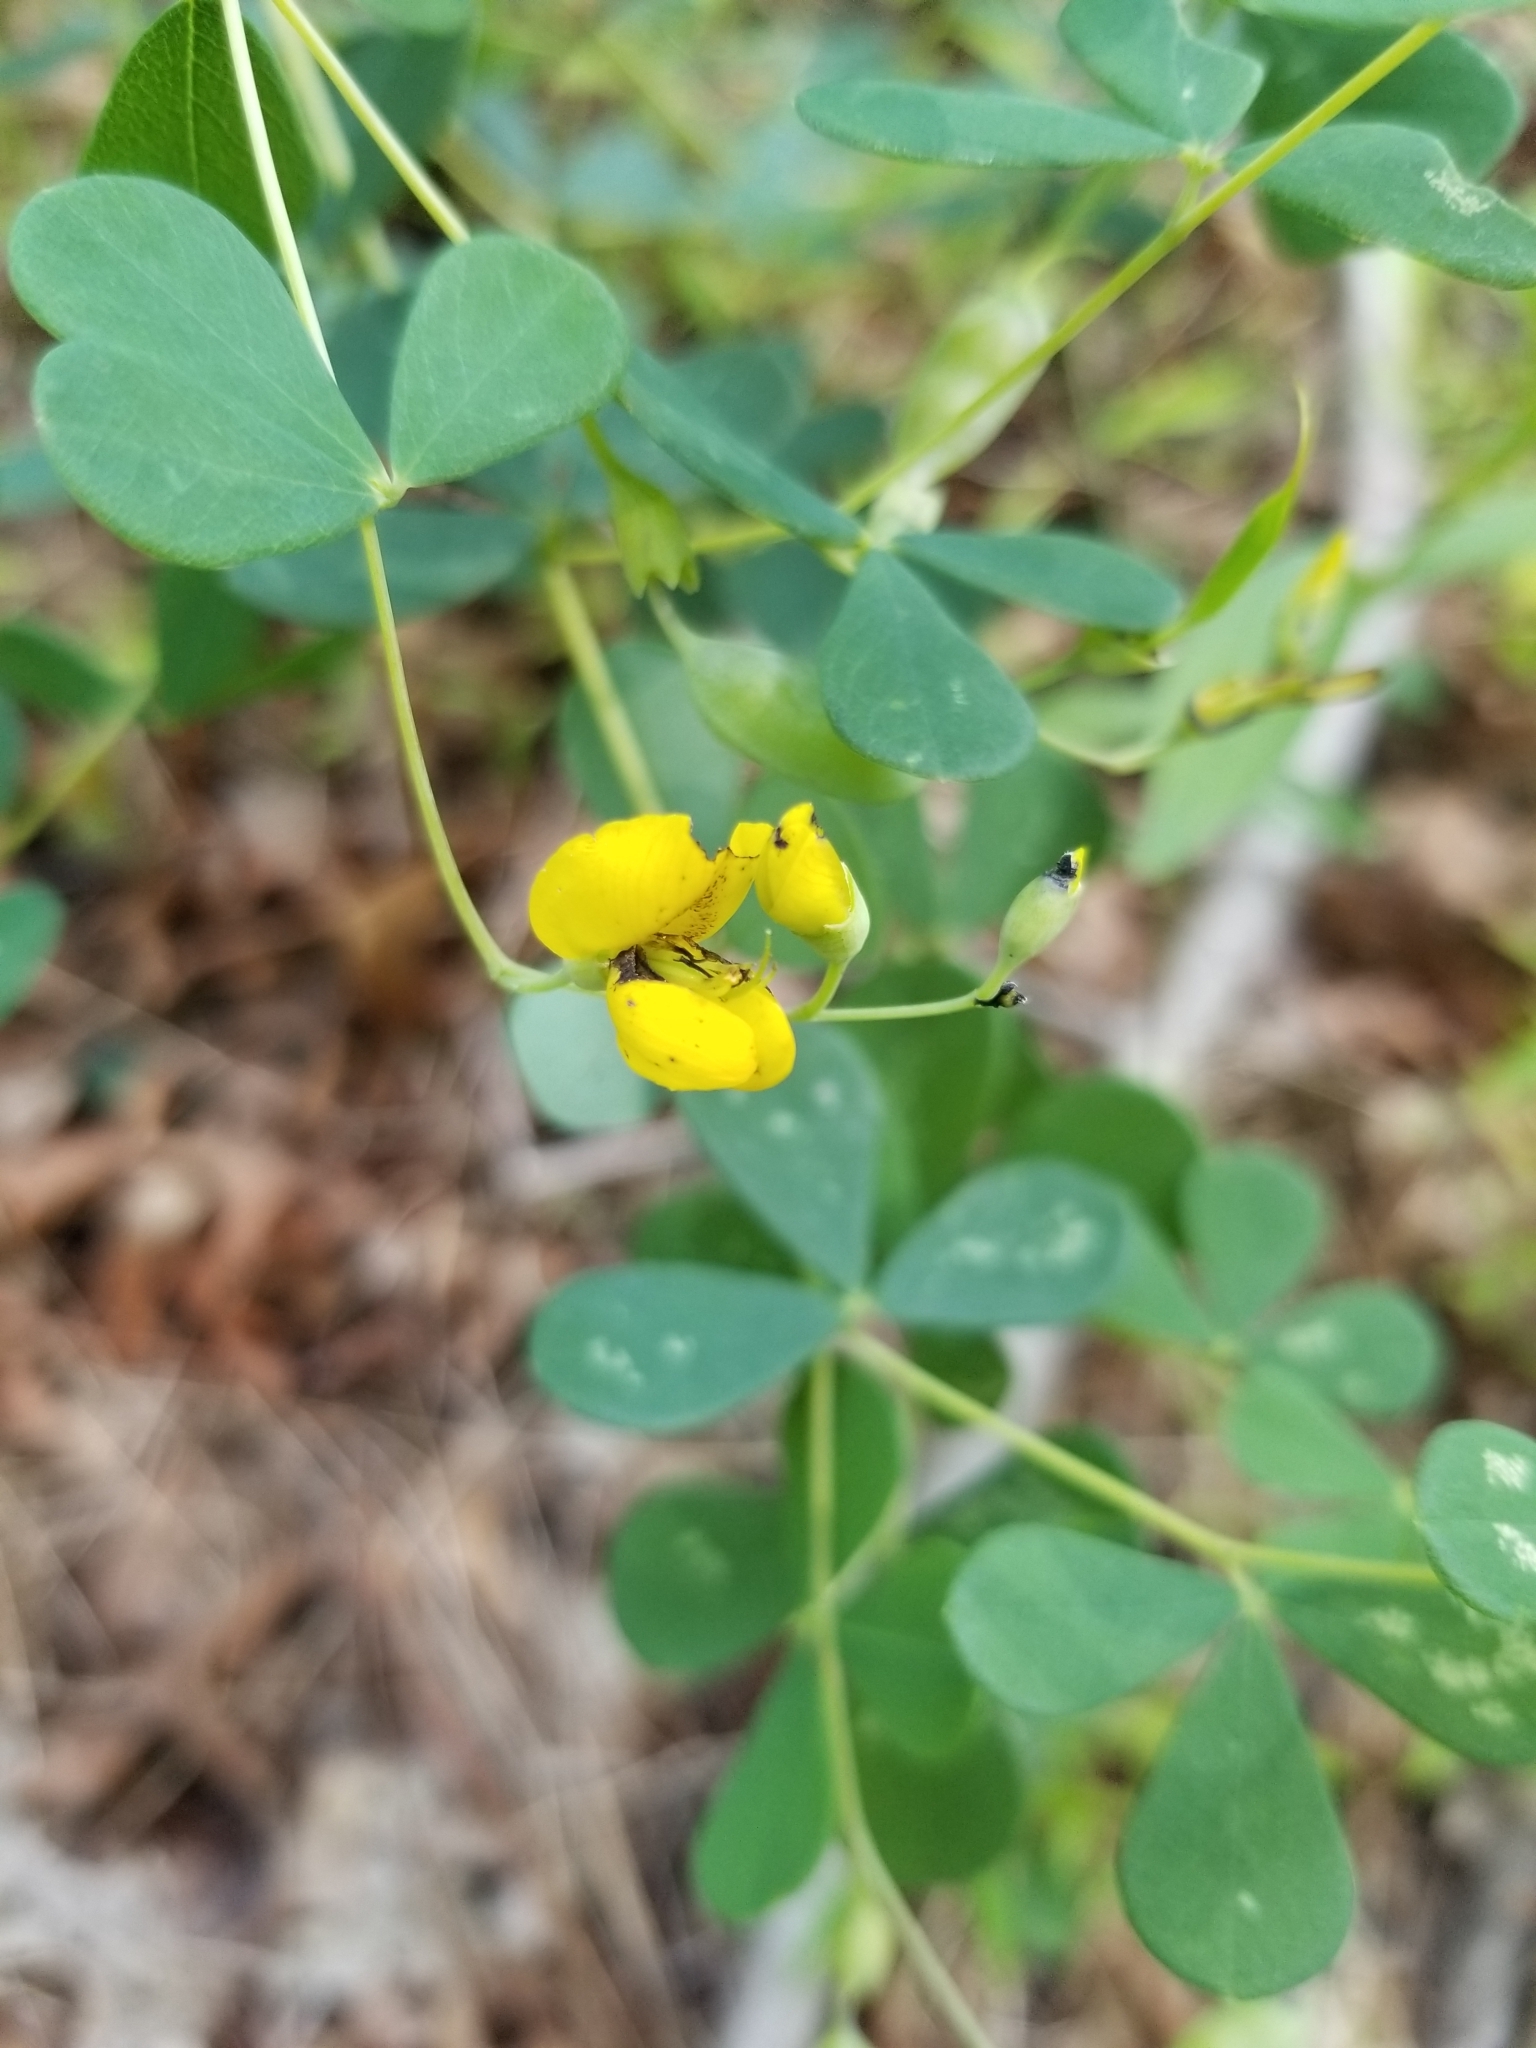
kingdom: Plantae
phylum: Tracheophyta
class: Magnoliopsida
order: Fabales
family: Fabaceae
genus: Baptisia
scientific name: Baptisia tinctoria
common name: Wild indigo
